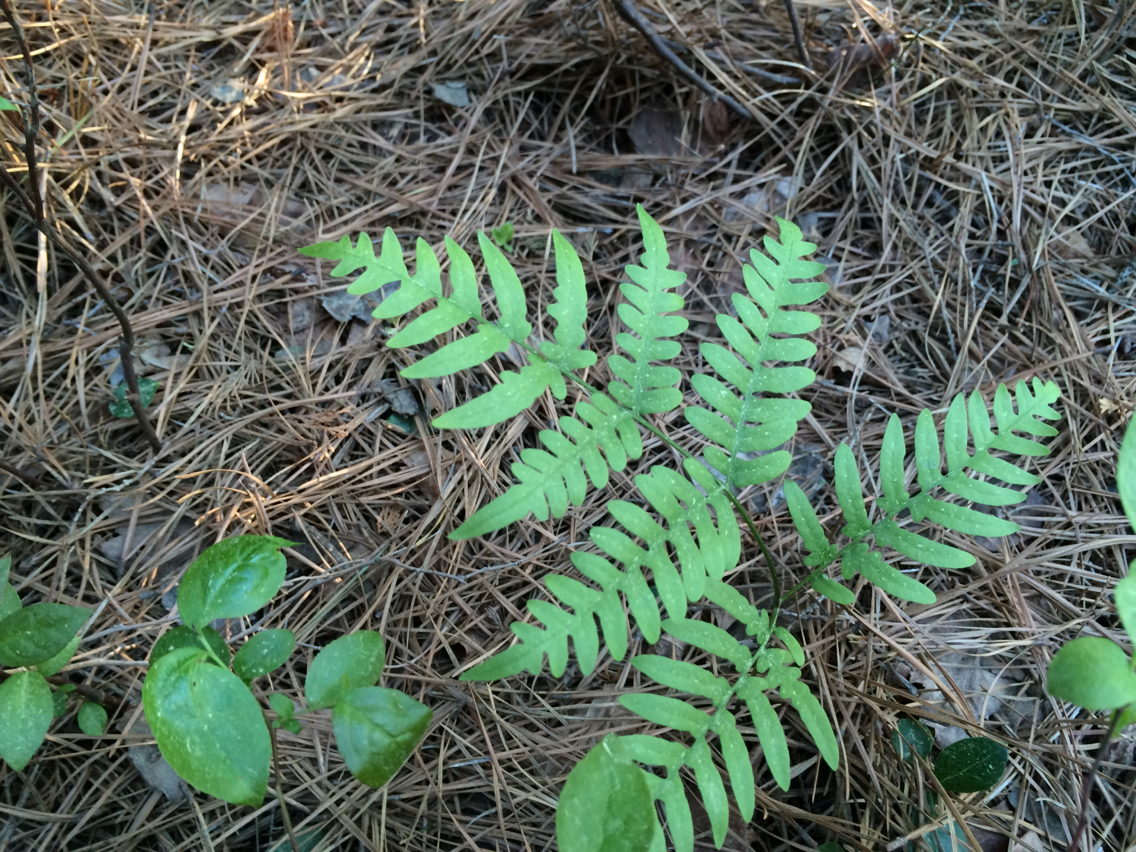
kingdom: Plantae
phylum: Tracheophyta
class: Polypodiopsida
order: Polypodiales
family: Dennstaedtiaceae
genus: Pteridium
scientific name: Pteridium aquilinum
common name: Bracken
